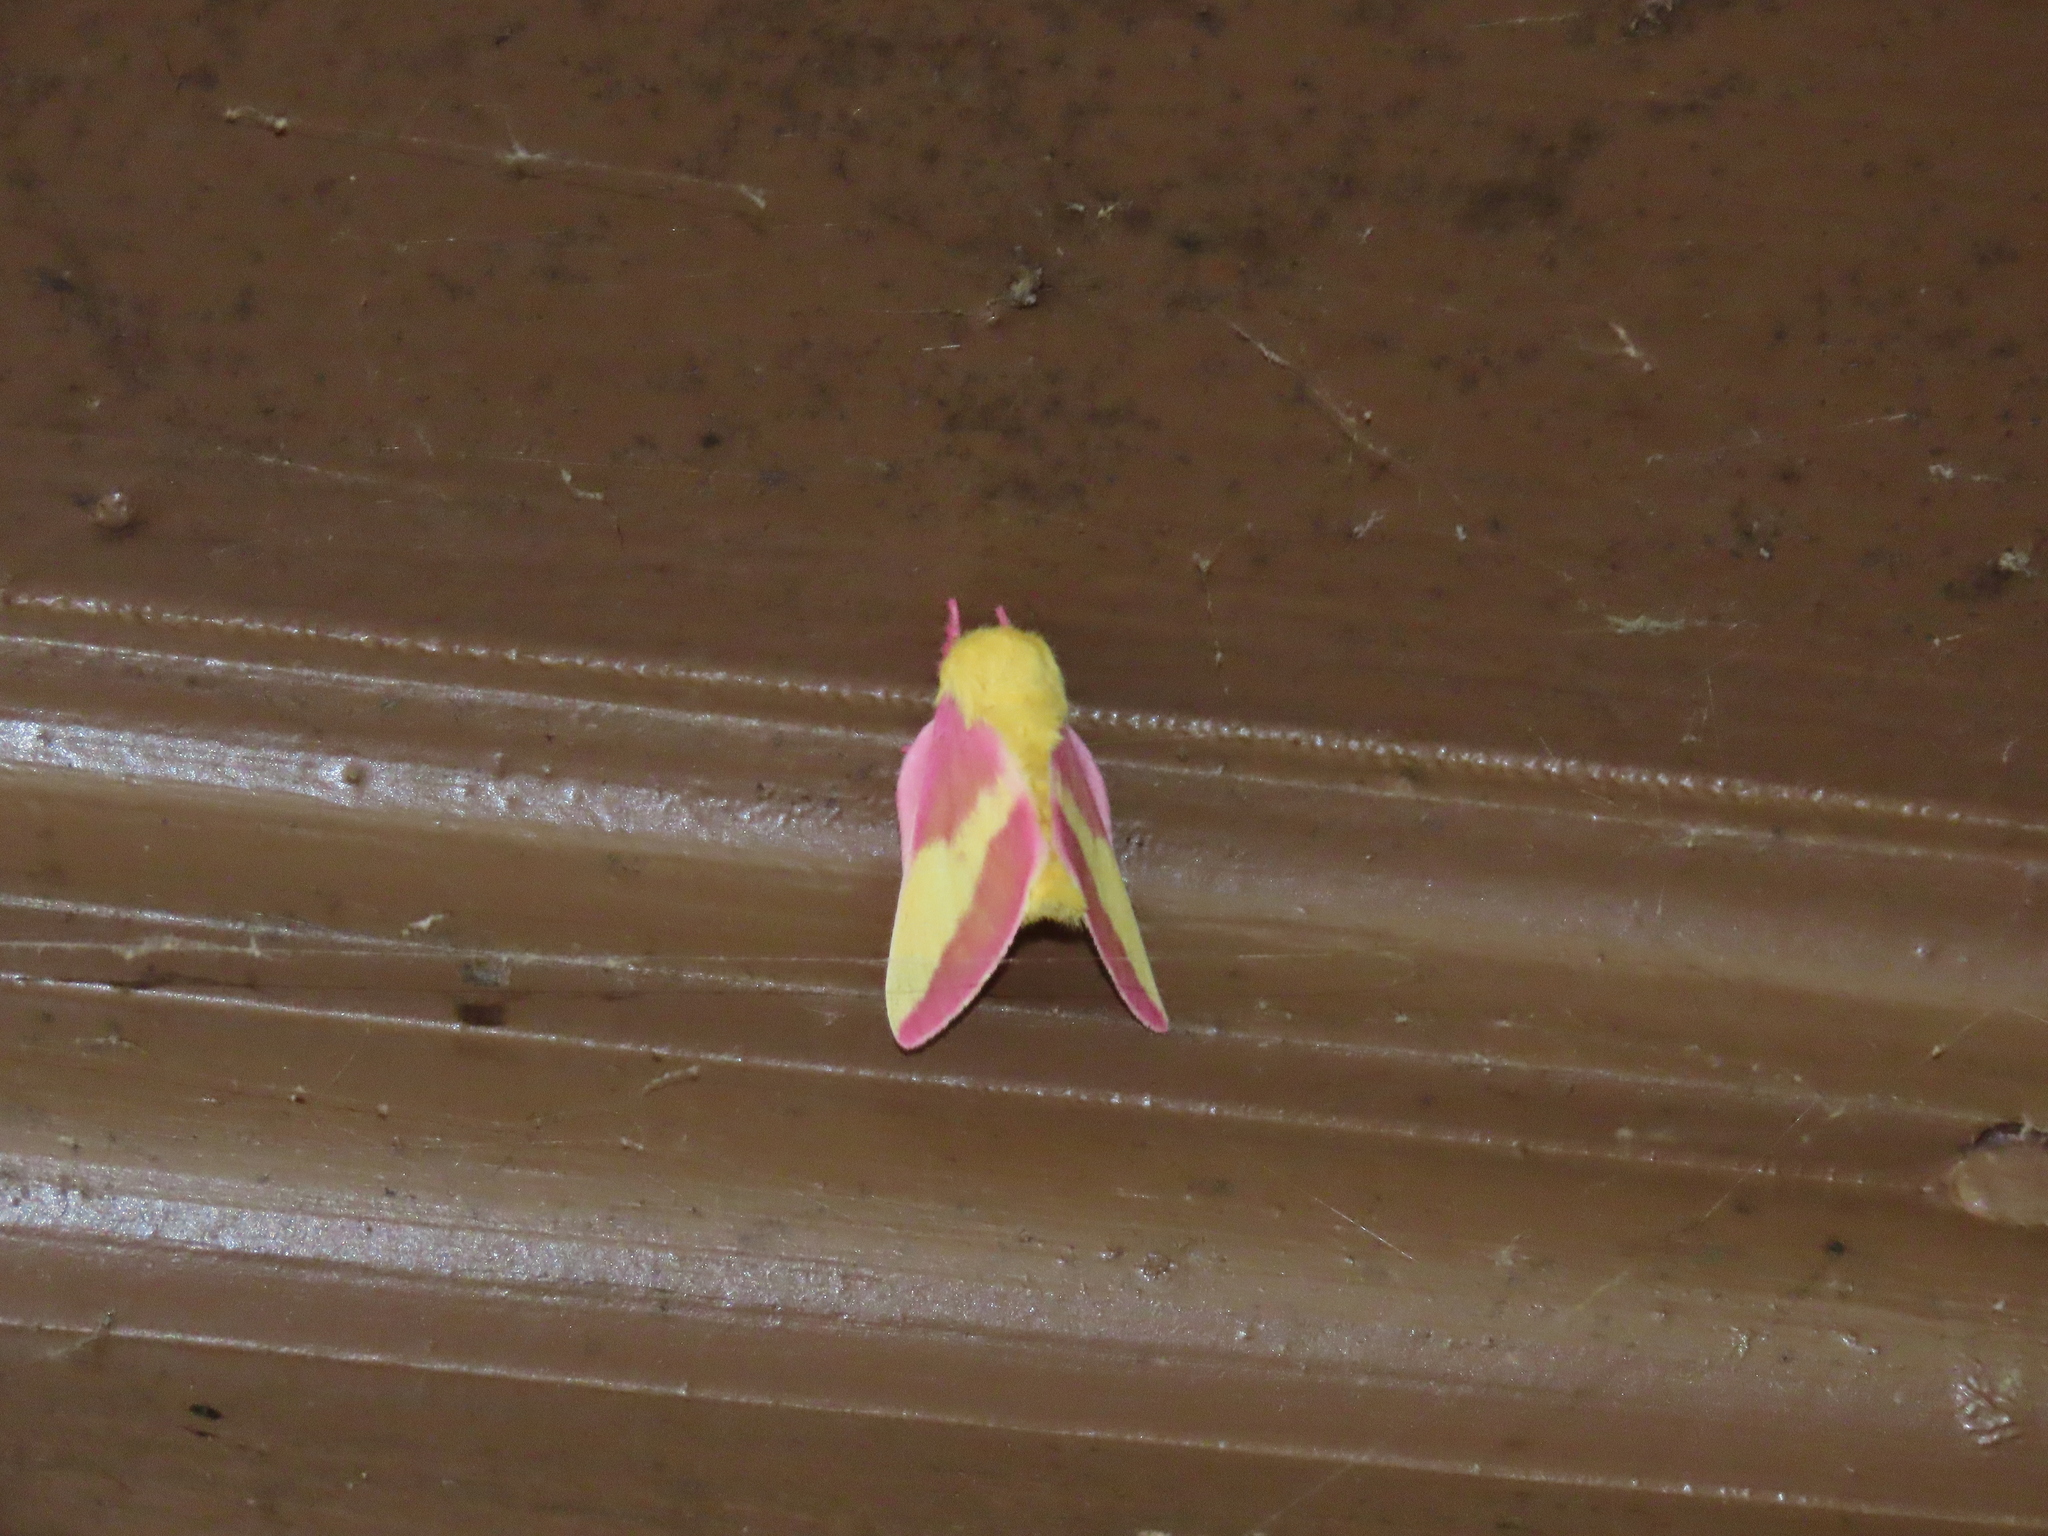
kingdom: Animalia
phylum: Arthropoda
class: Insecta
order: Lepidoptera
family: Saturniidae
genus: Dryocampa
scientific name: Dryocampa rubicunda
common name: Rosy maple moth
